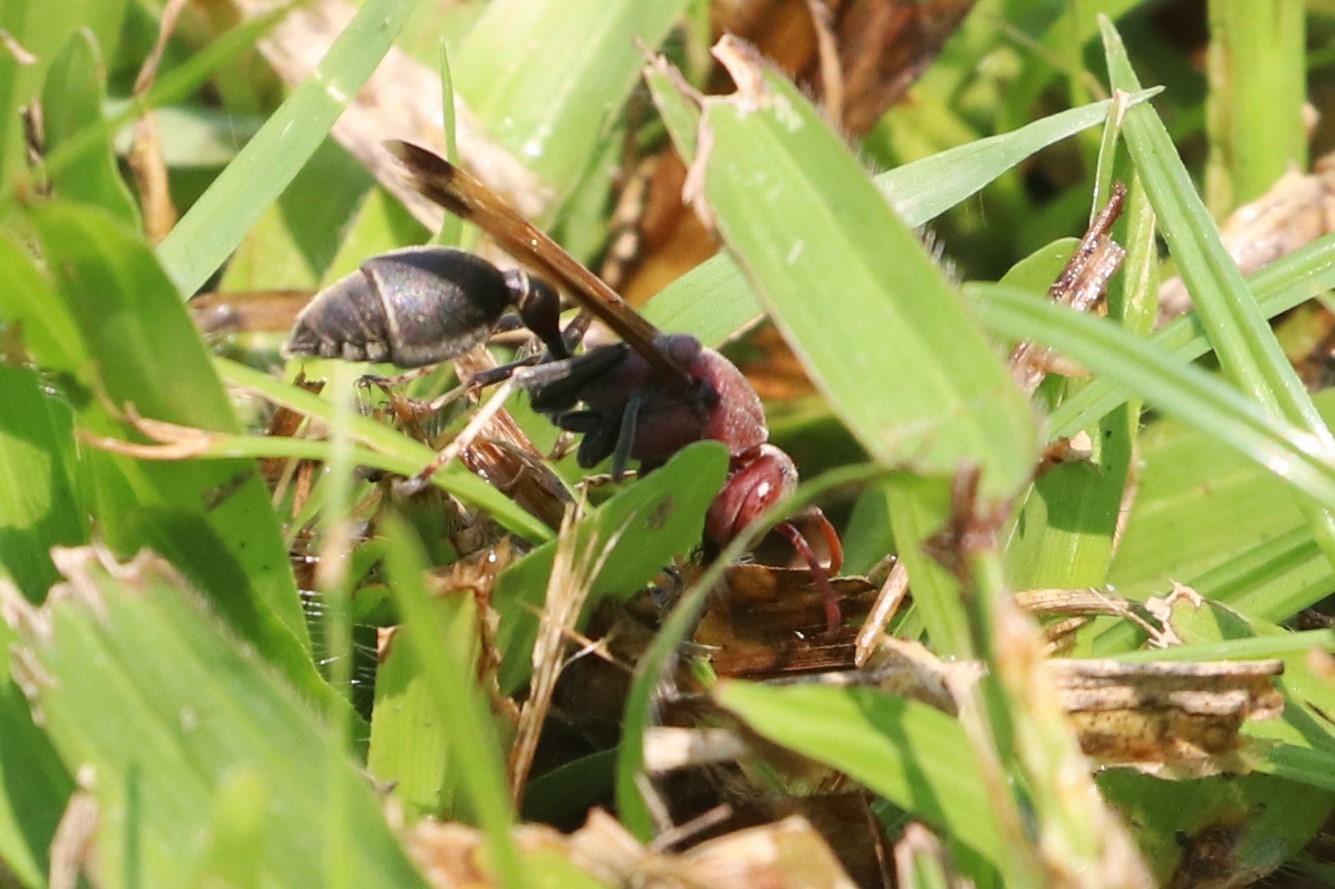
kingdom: Animalia
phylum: Arthropoda
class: Insecta
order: Hymenoptera
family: Vespidae
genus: Ropalidia
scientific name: Ropalidia magnanima
